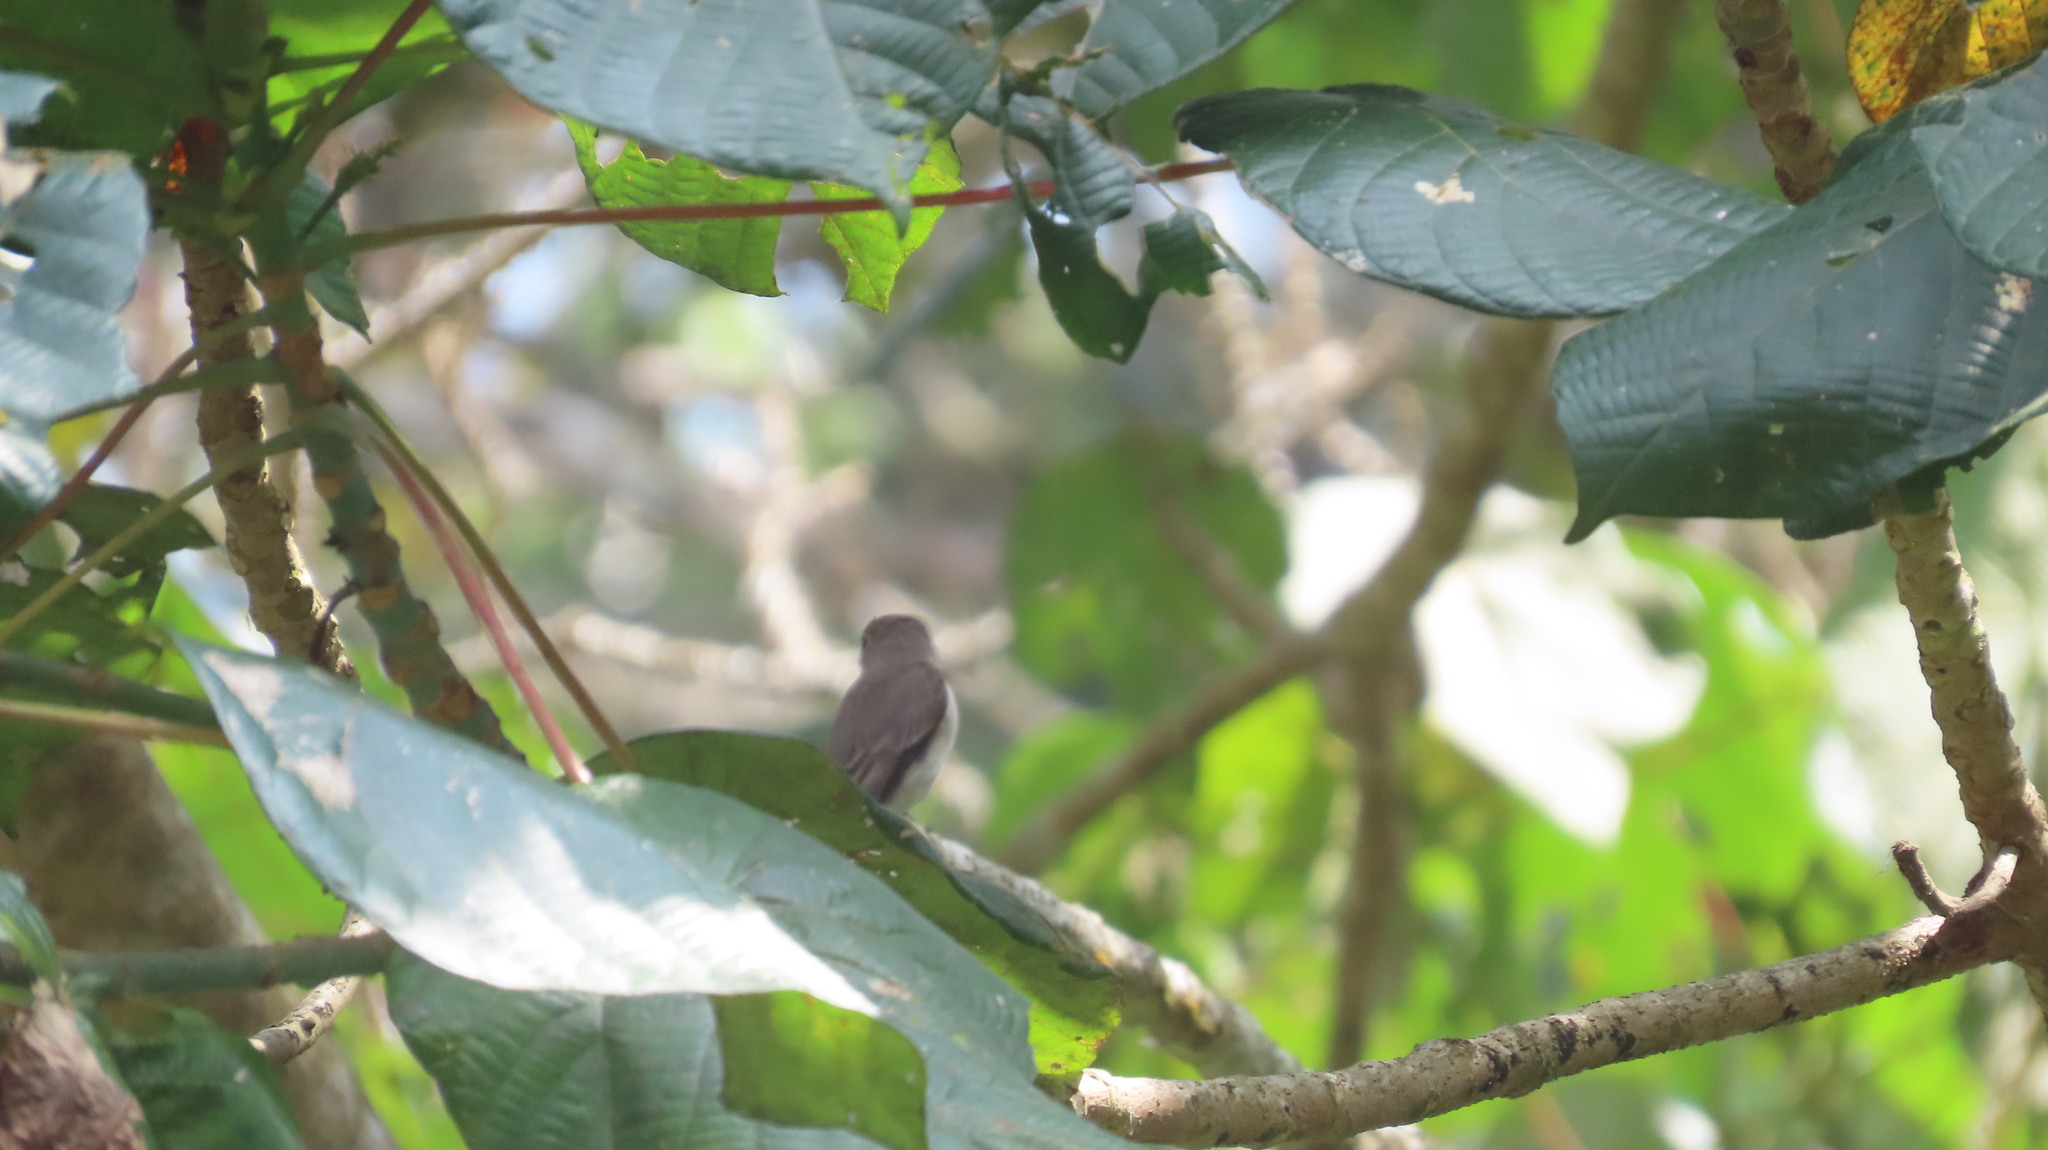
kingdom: Animalia
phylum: Chordata
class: Aves
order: Passeriformes
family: Muscicapidae
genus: Muscicapa
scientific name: Muscicapa latirostris
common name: Asian brown flycatcher
